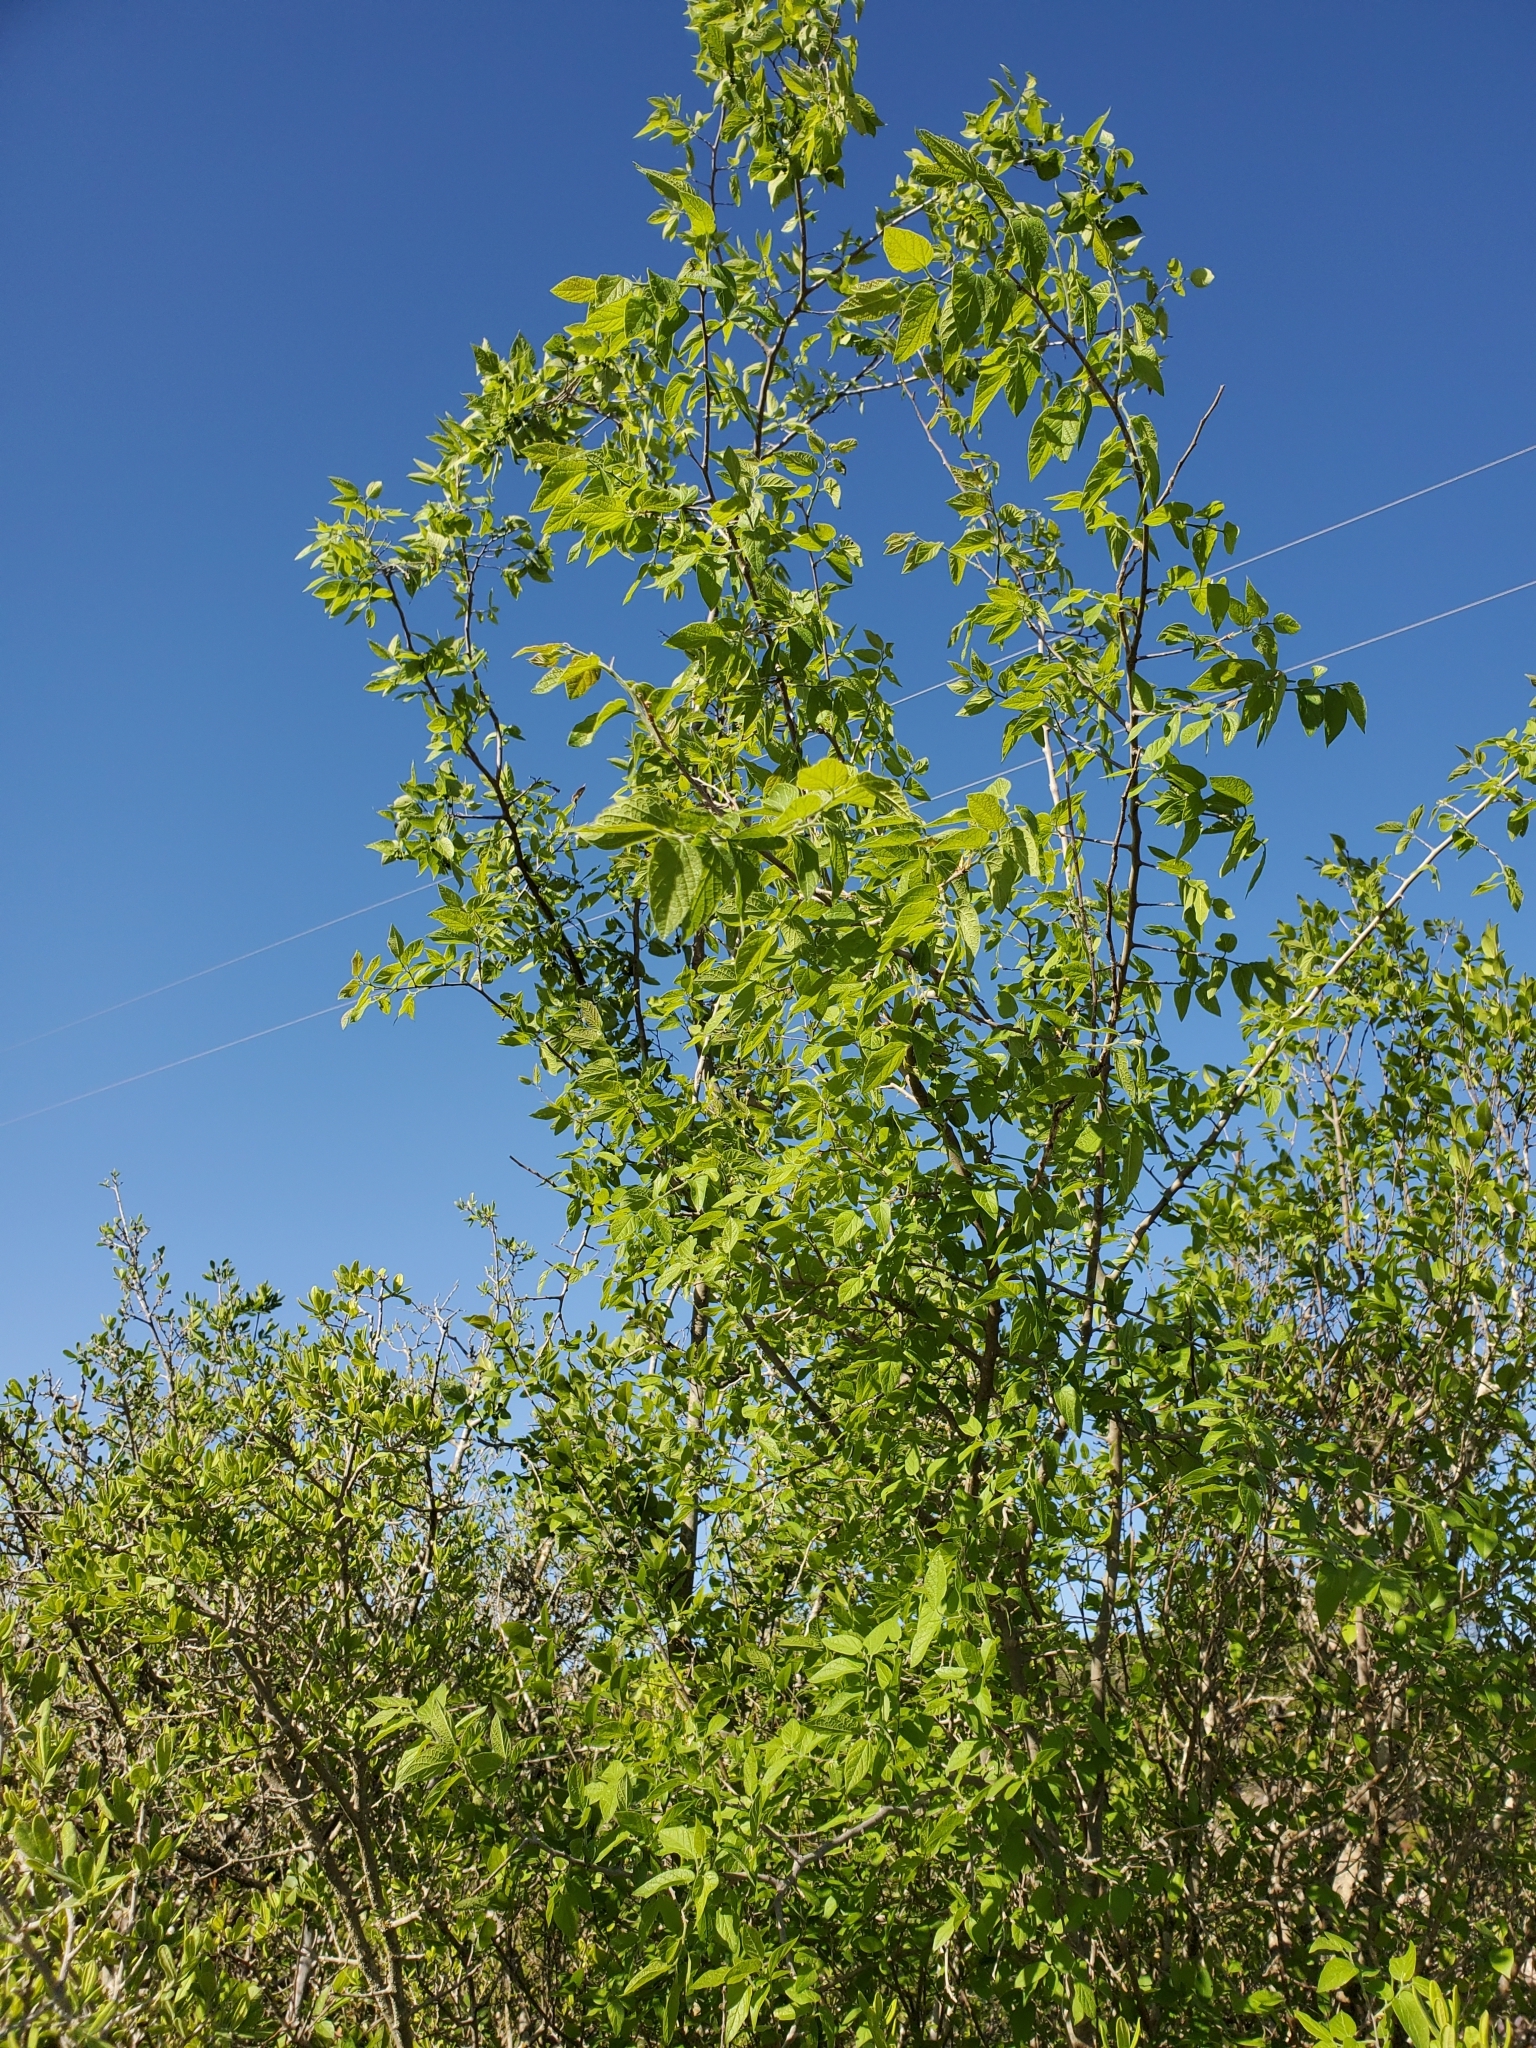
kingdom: Plantae
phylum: Tracheophyta
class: Magnoliopsida
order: Rosales
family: Cannabaceae
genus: Celtis
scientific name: Celtis reticulata
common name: Netleaf hackberry
